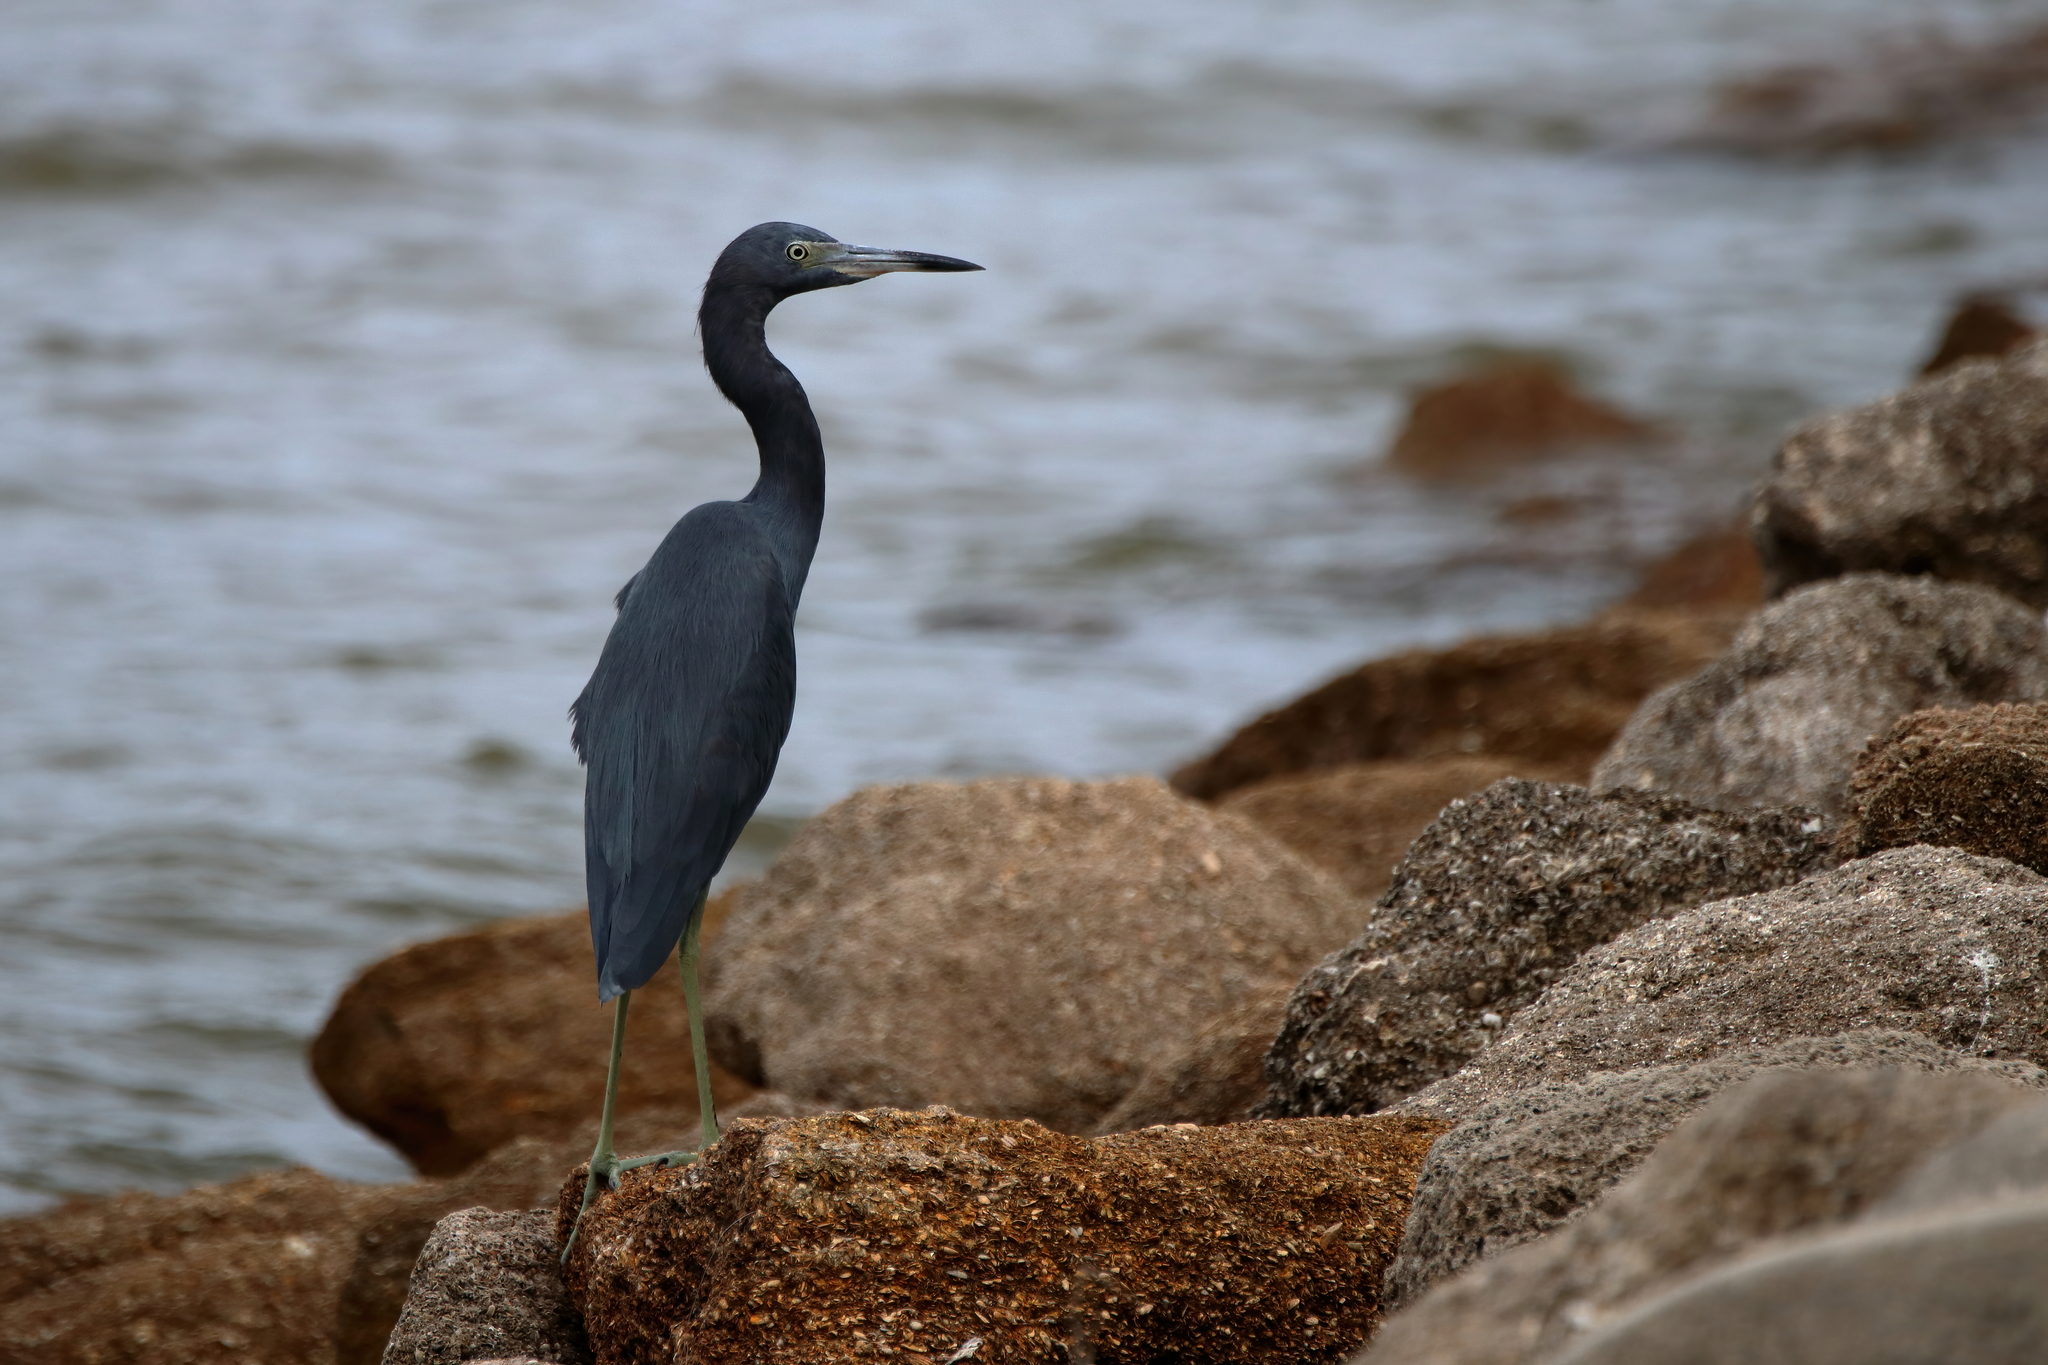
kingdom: Animalia
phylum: Chordata
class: Aves
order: Pelecaniformes
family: Ardeidae
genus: Egretta
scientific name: Egretta caerulea
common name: Little blue heron
